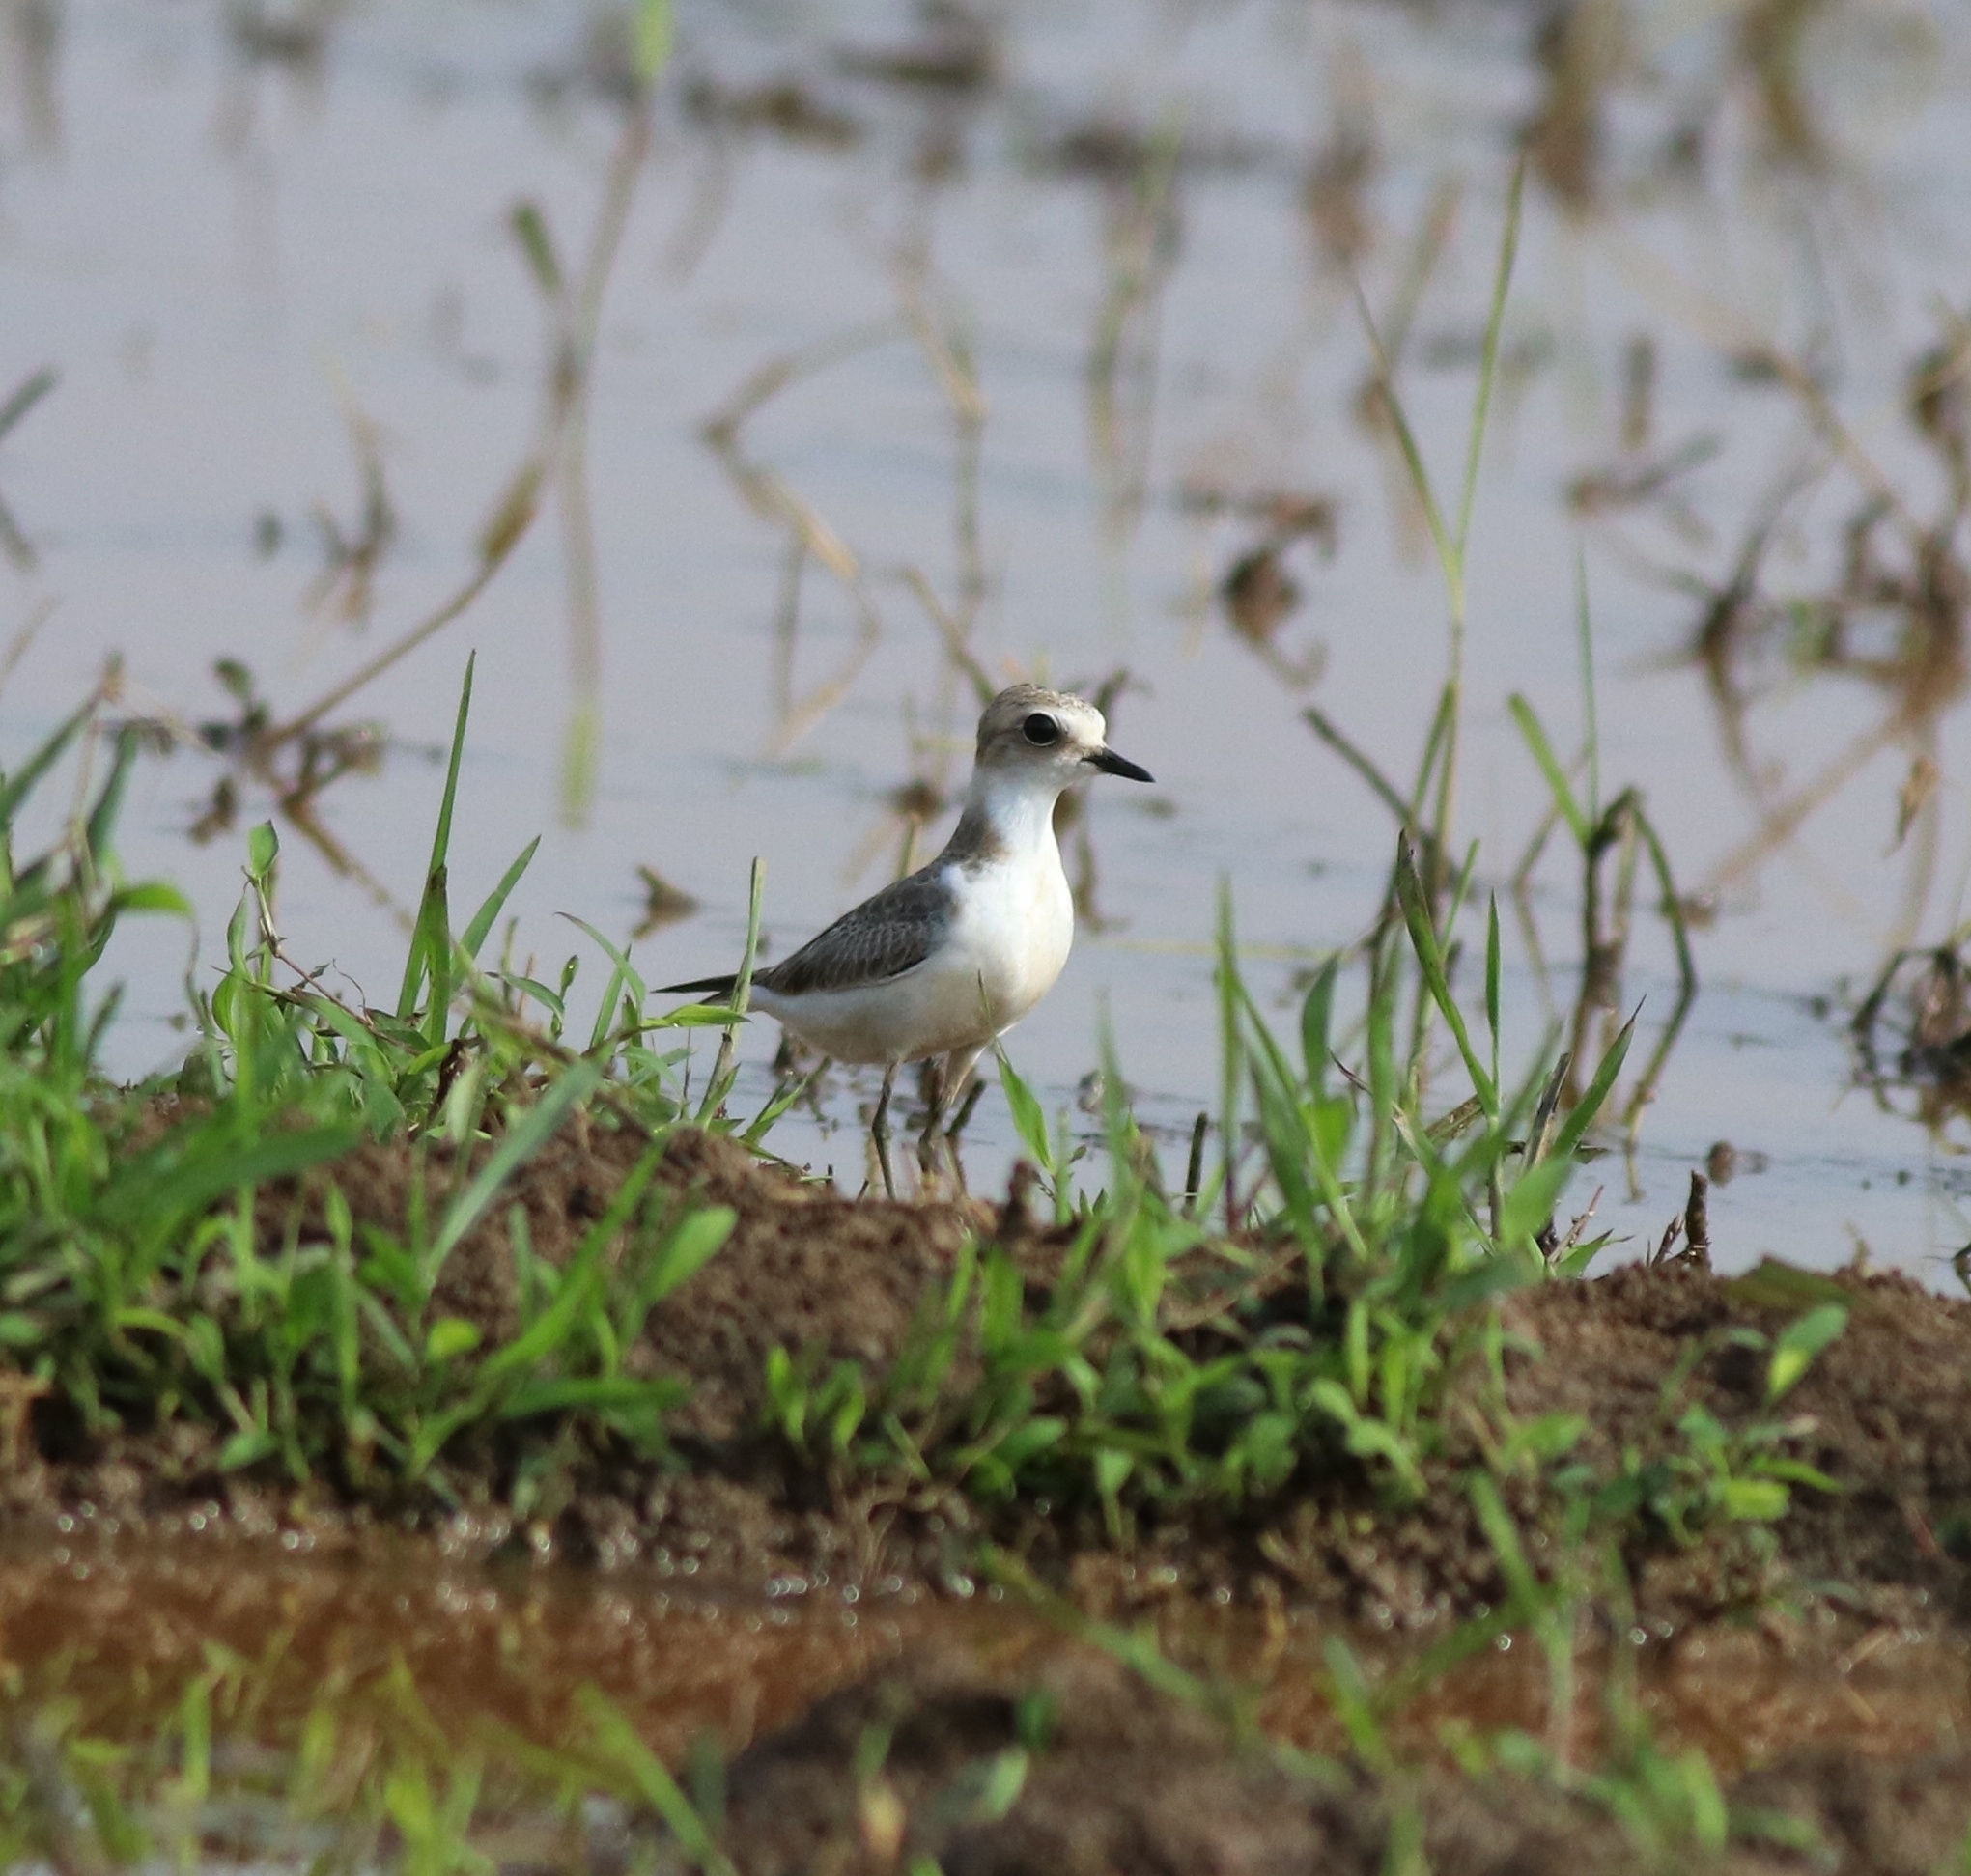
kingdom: Animalia
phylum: Chordata
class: Aves
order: Charadriiformes
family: Charadriidae
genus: Charadrius
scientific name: Charadrius alexandrinus
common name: Kentish plover
